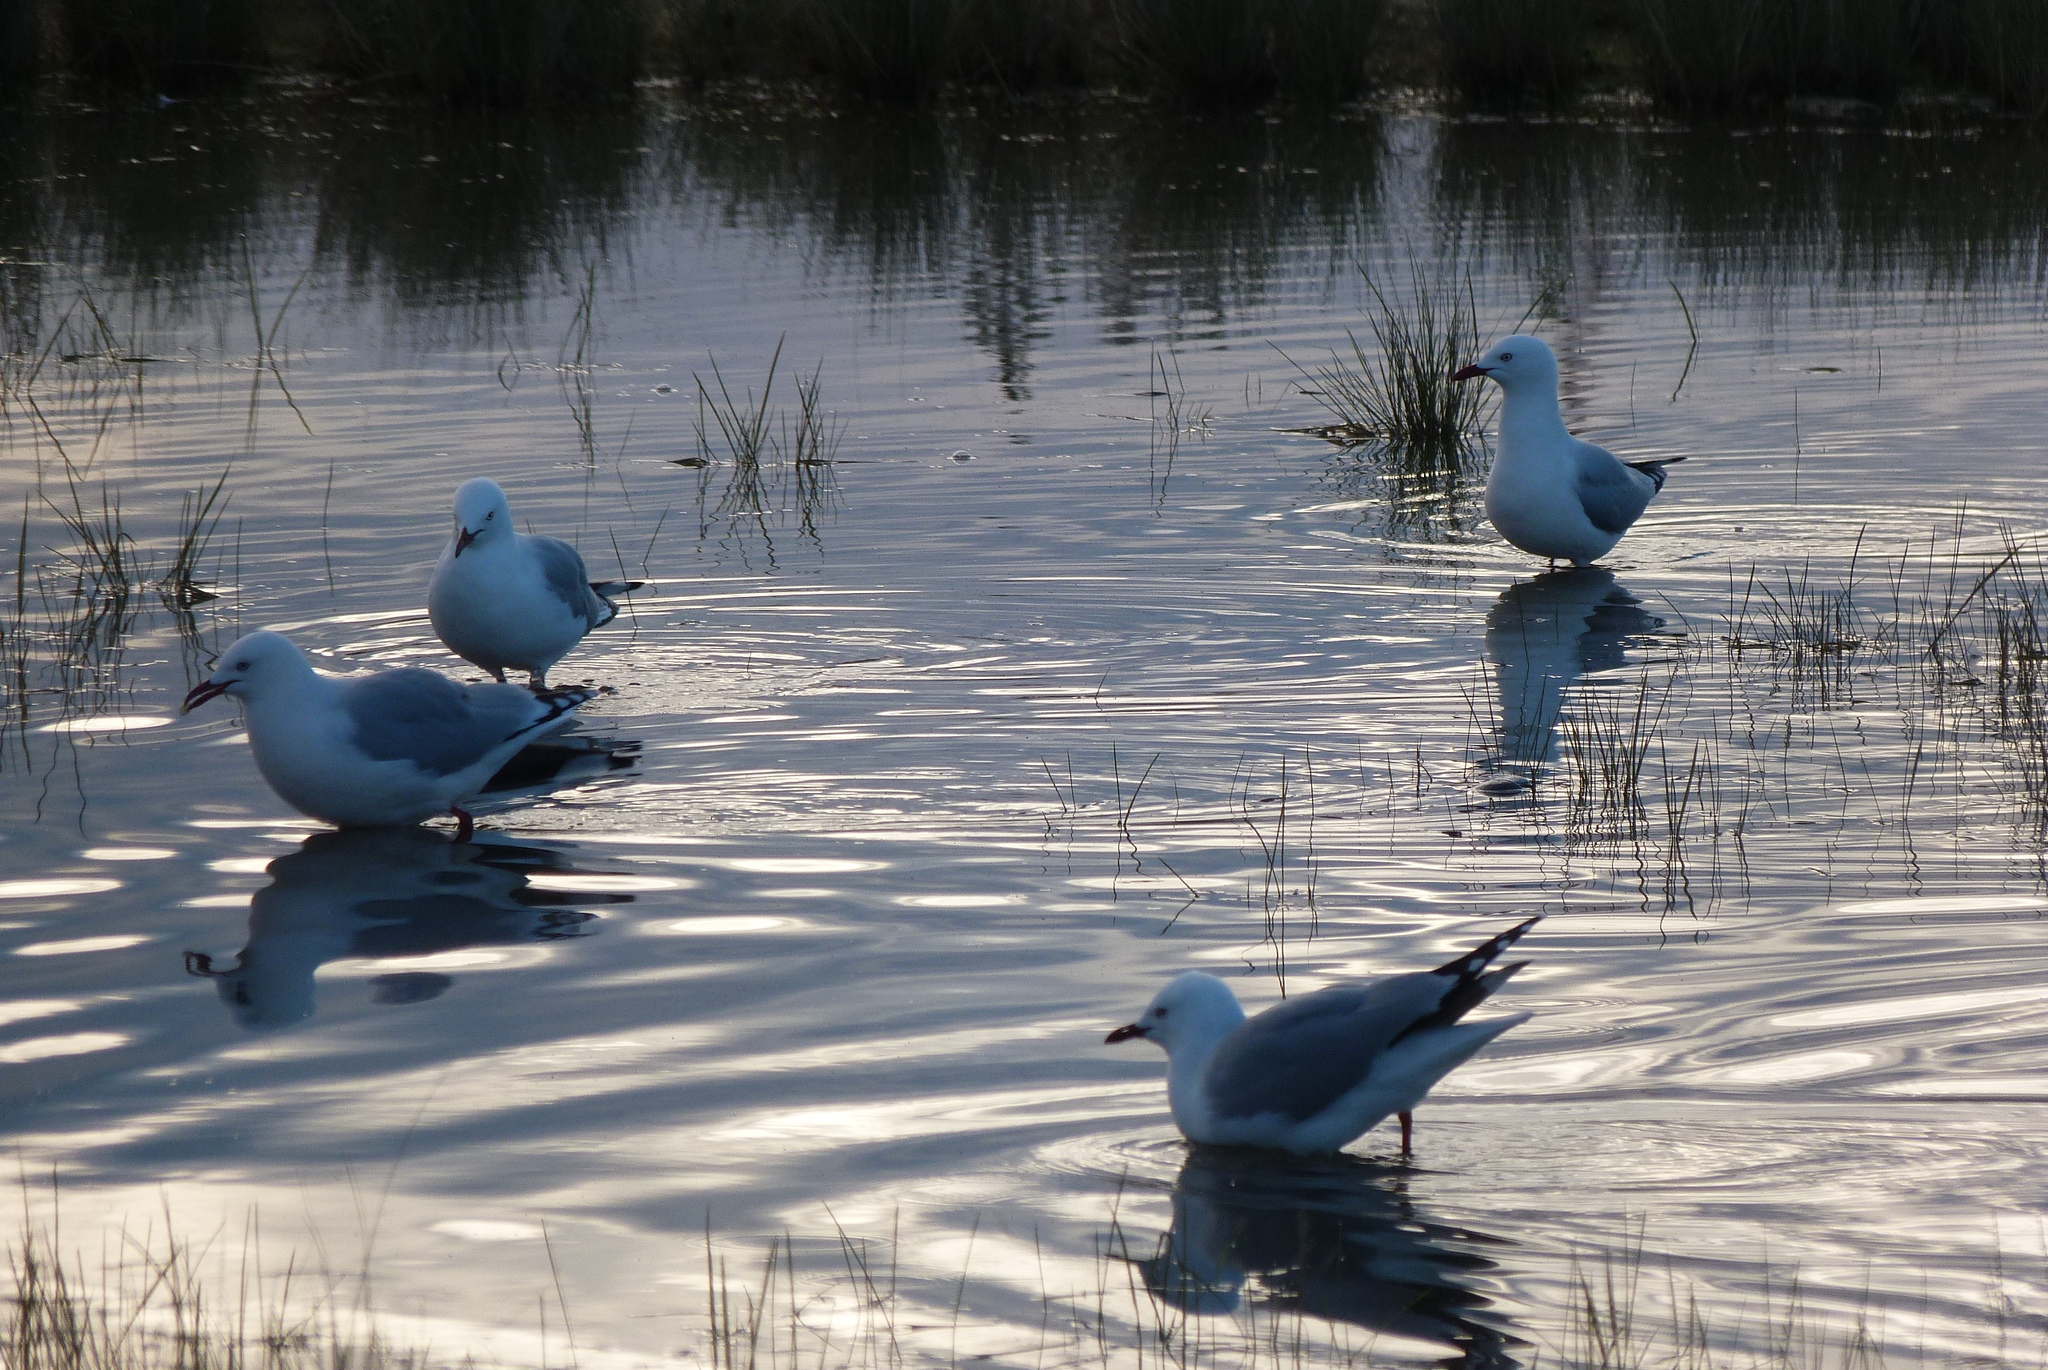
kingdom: Animalia
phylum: Chordata
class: Aves
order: Charadriiformes
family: Laridae
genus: Chroicocephalus
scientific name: Chroicocephalus novaehollandiae
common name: Silver gull
